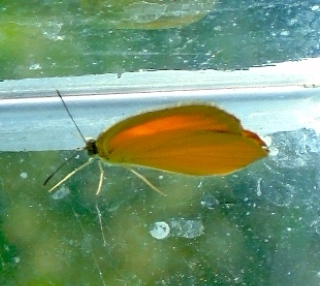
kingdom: Animalia
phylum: Arthropoda
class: Insecta
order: Lepidoptera
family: Pieridae
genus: Pyrisitia
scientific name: Pyrisitia proterpia
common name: Tailed orange
